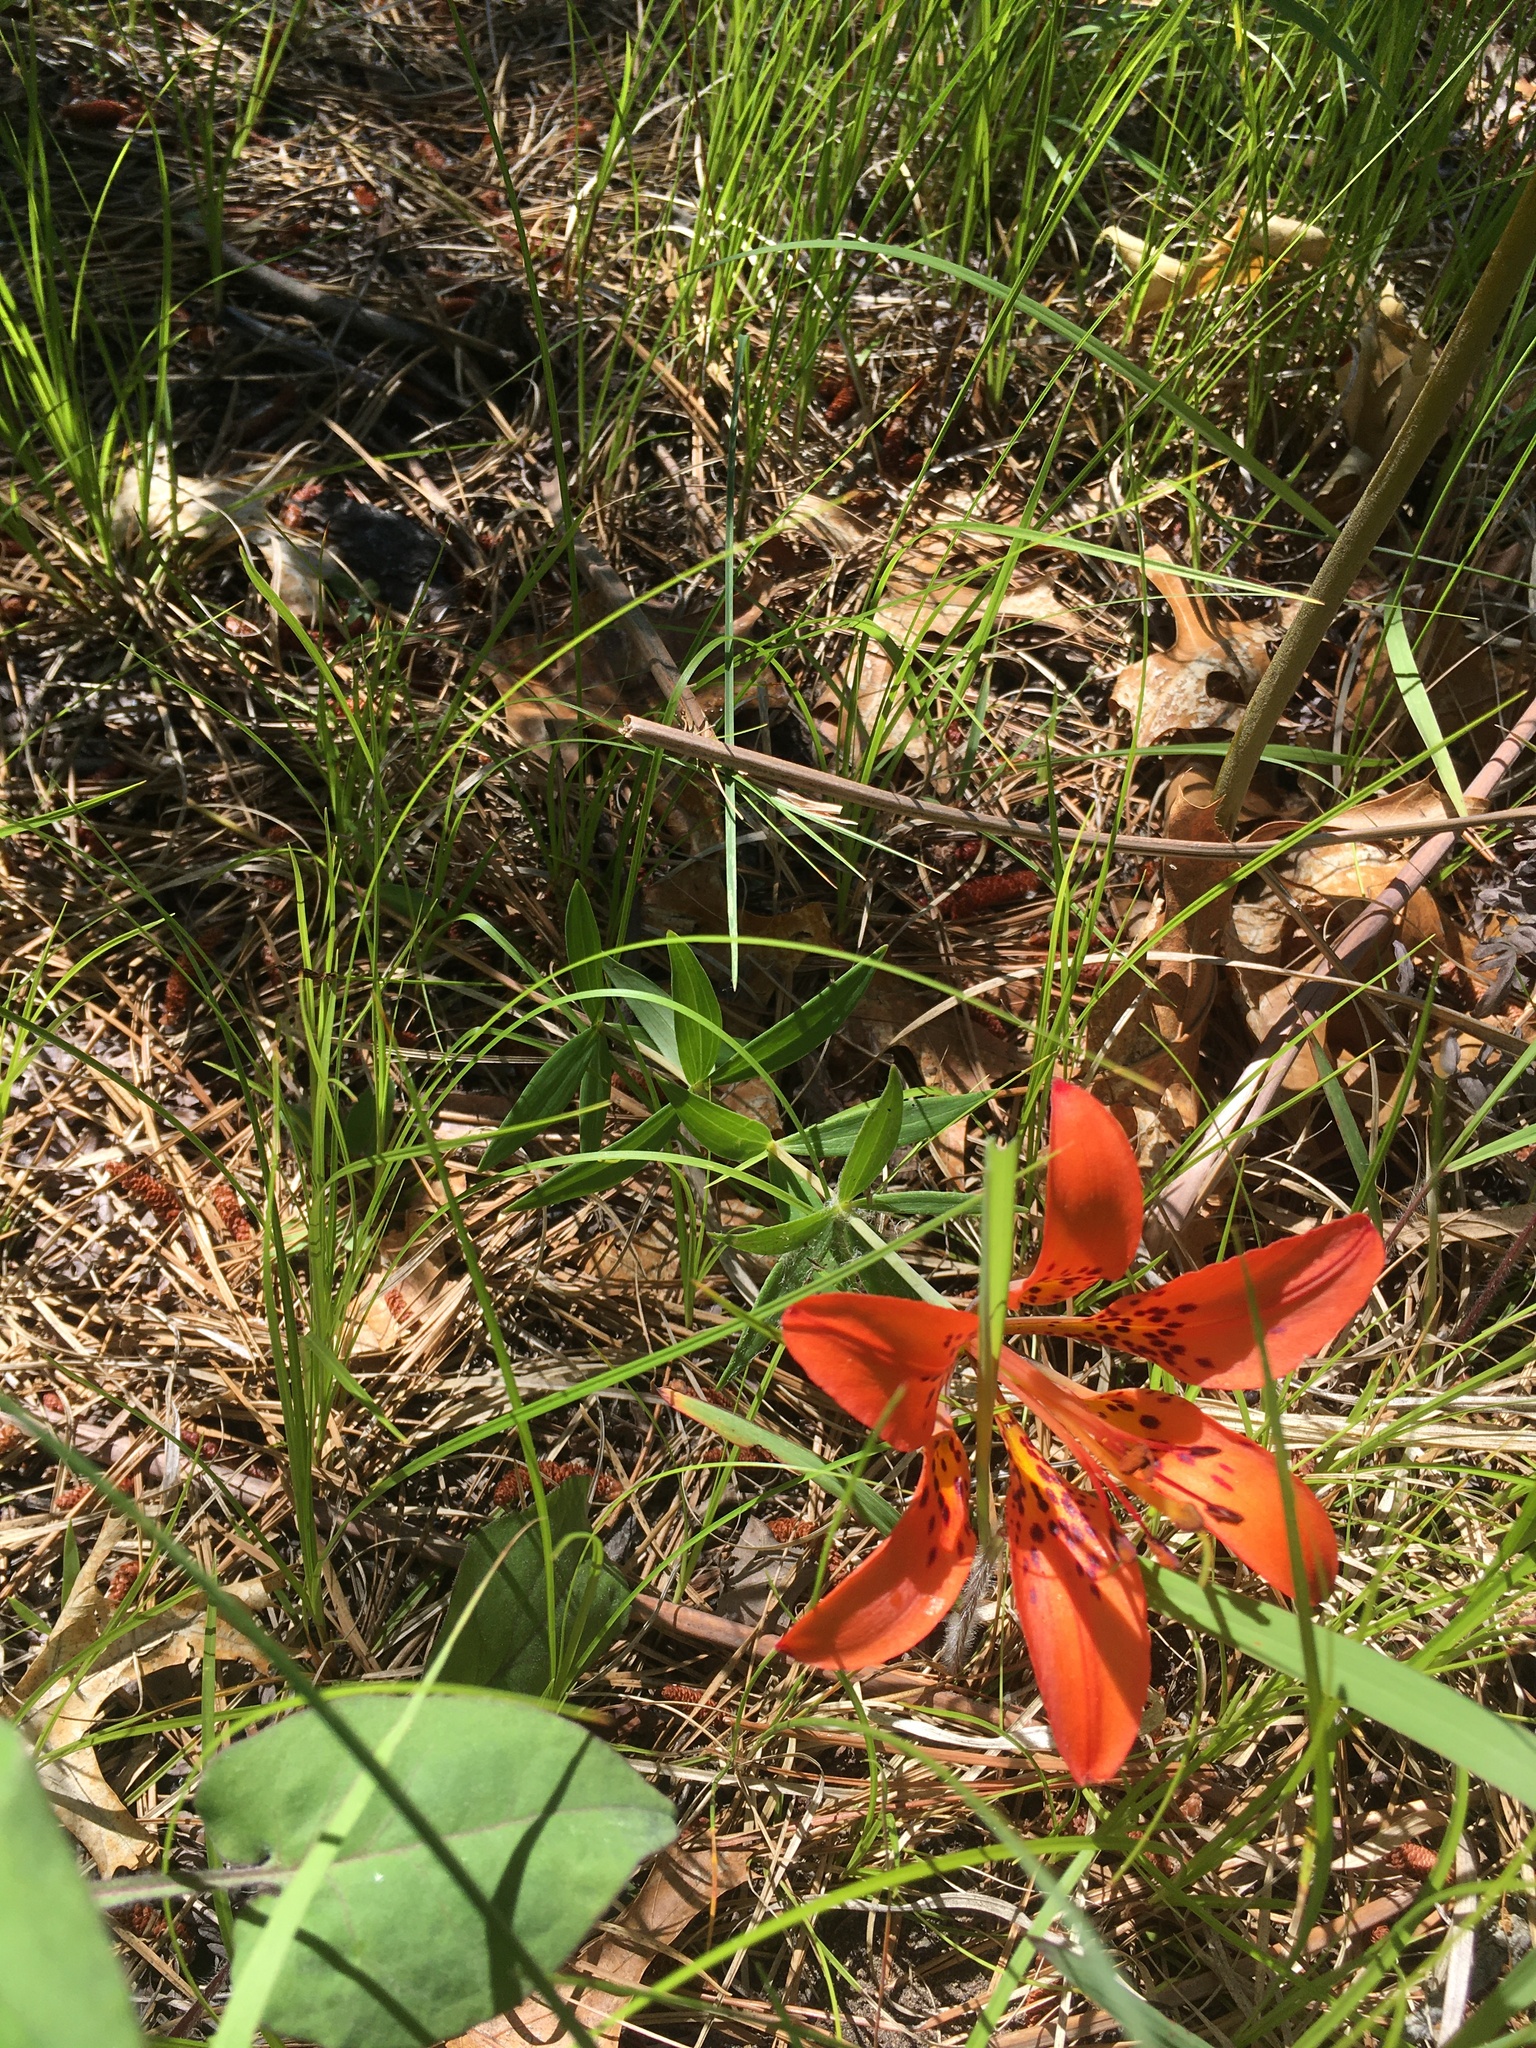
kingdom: Plantae
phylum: Tracheophyta
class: Liliopsida
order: Liliales
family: Liliaceae
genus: Lilium
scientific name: Lilium philadelphicum
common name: Red lily
